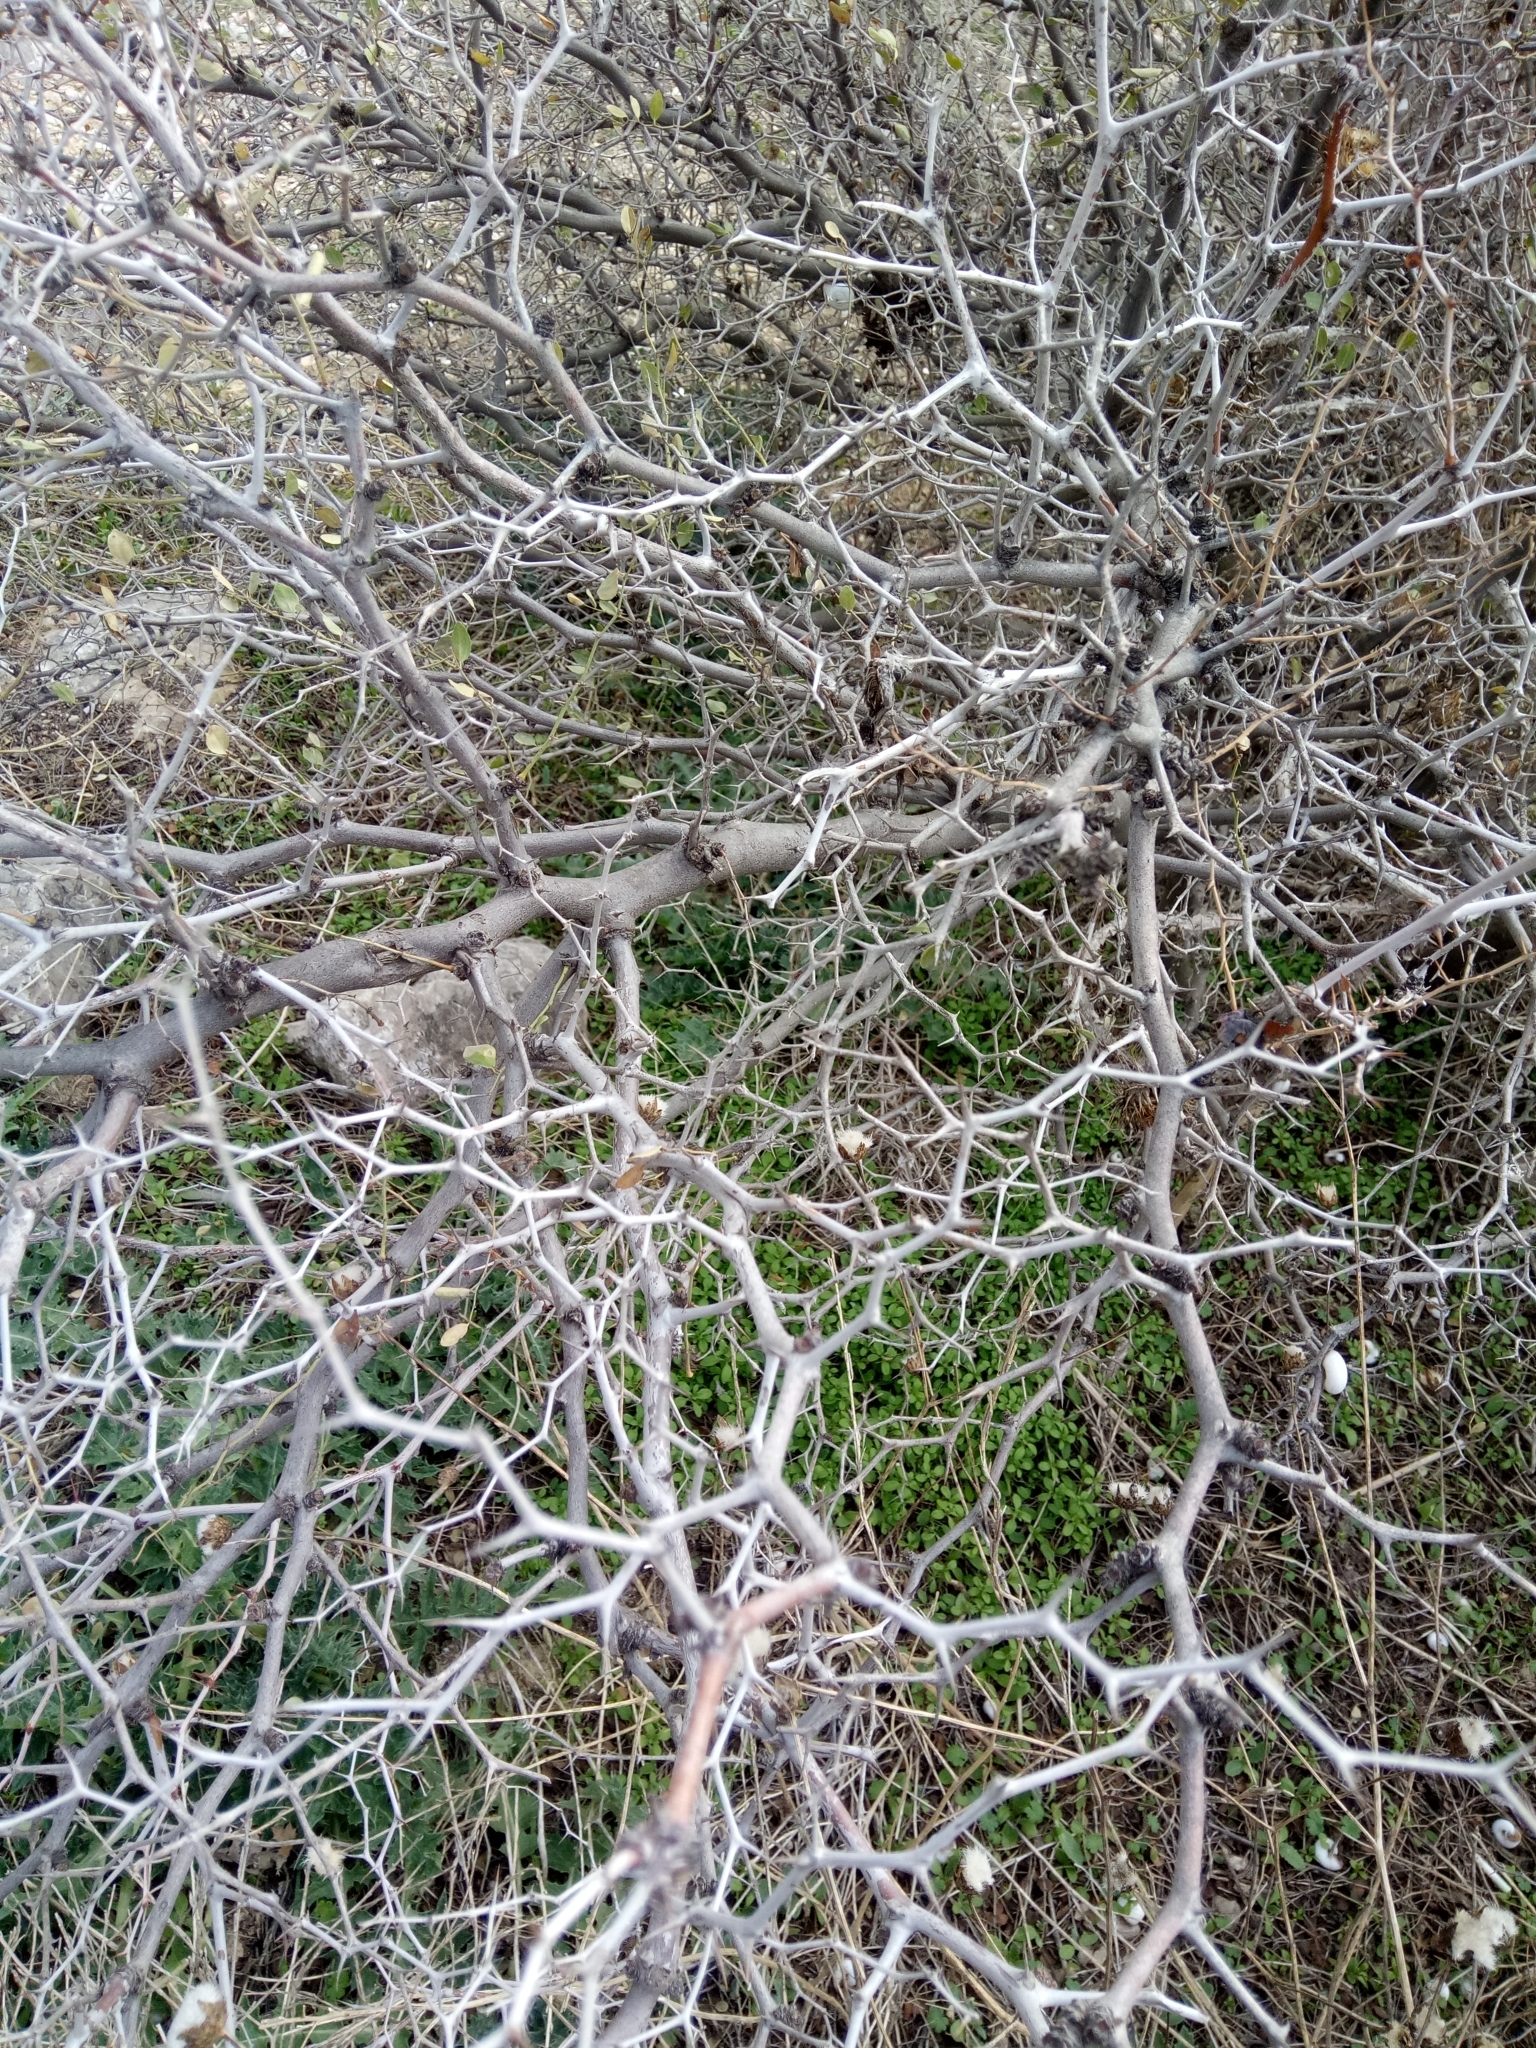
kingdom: Plantae
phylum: Tracheophyta
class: Magnoliopsida
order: Rosales
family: Rhamnaceae
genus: Ziziphus
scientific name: Ziziphus lotus
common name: Lotus
